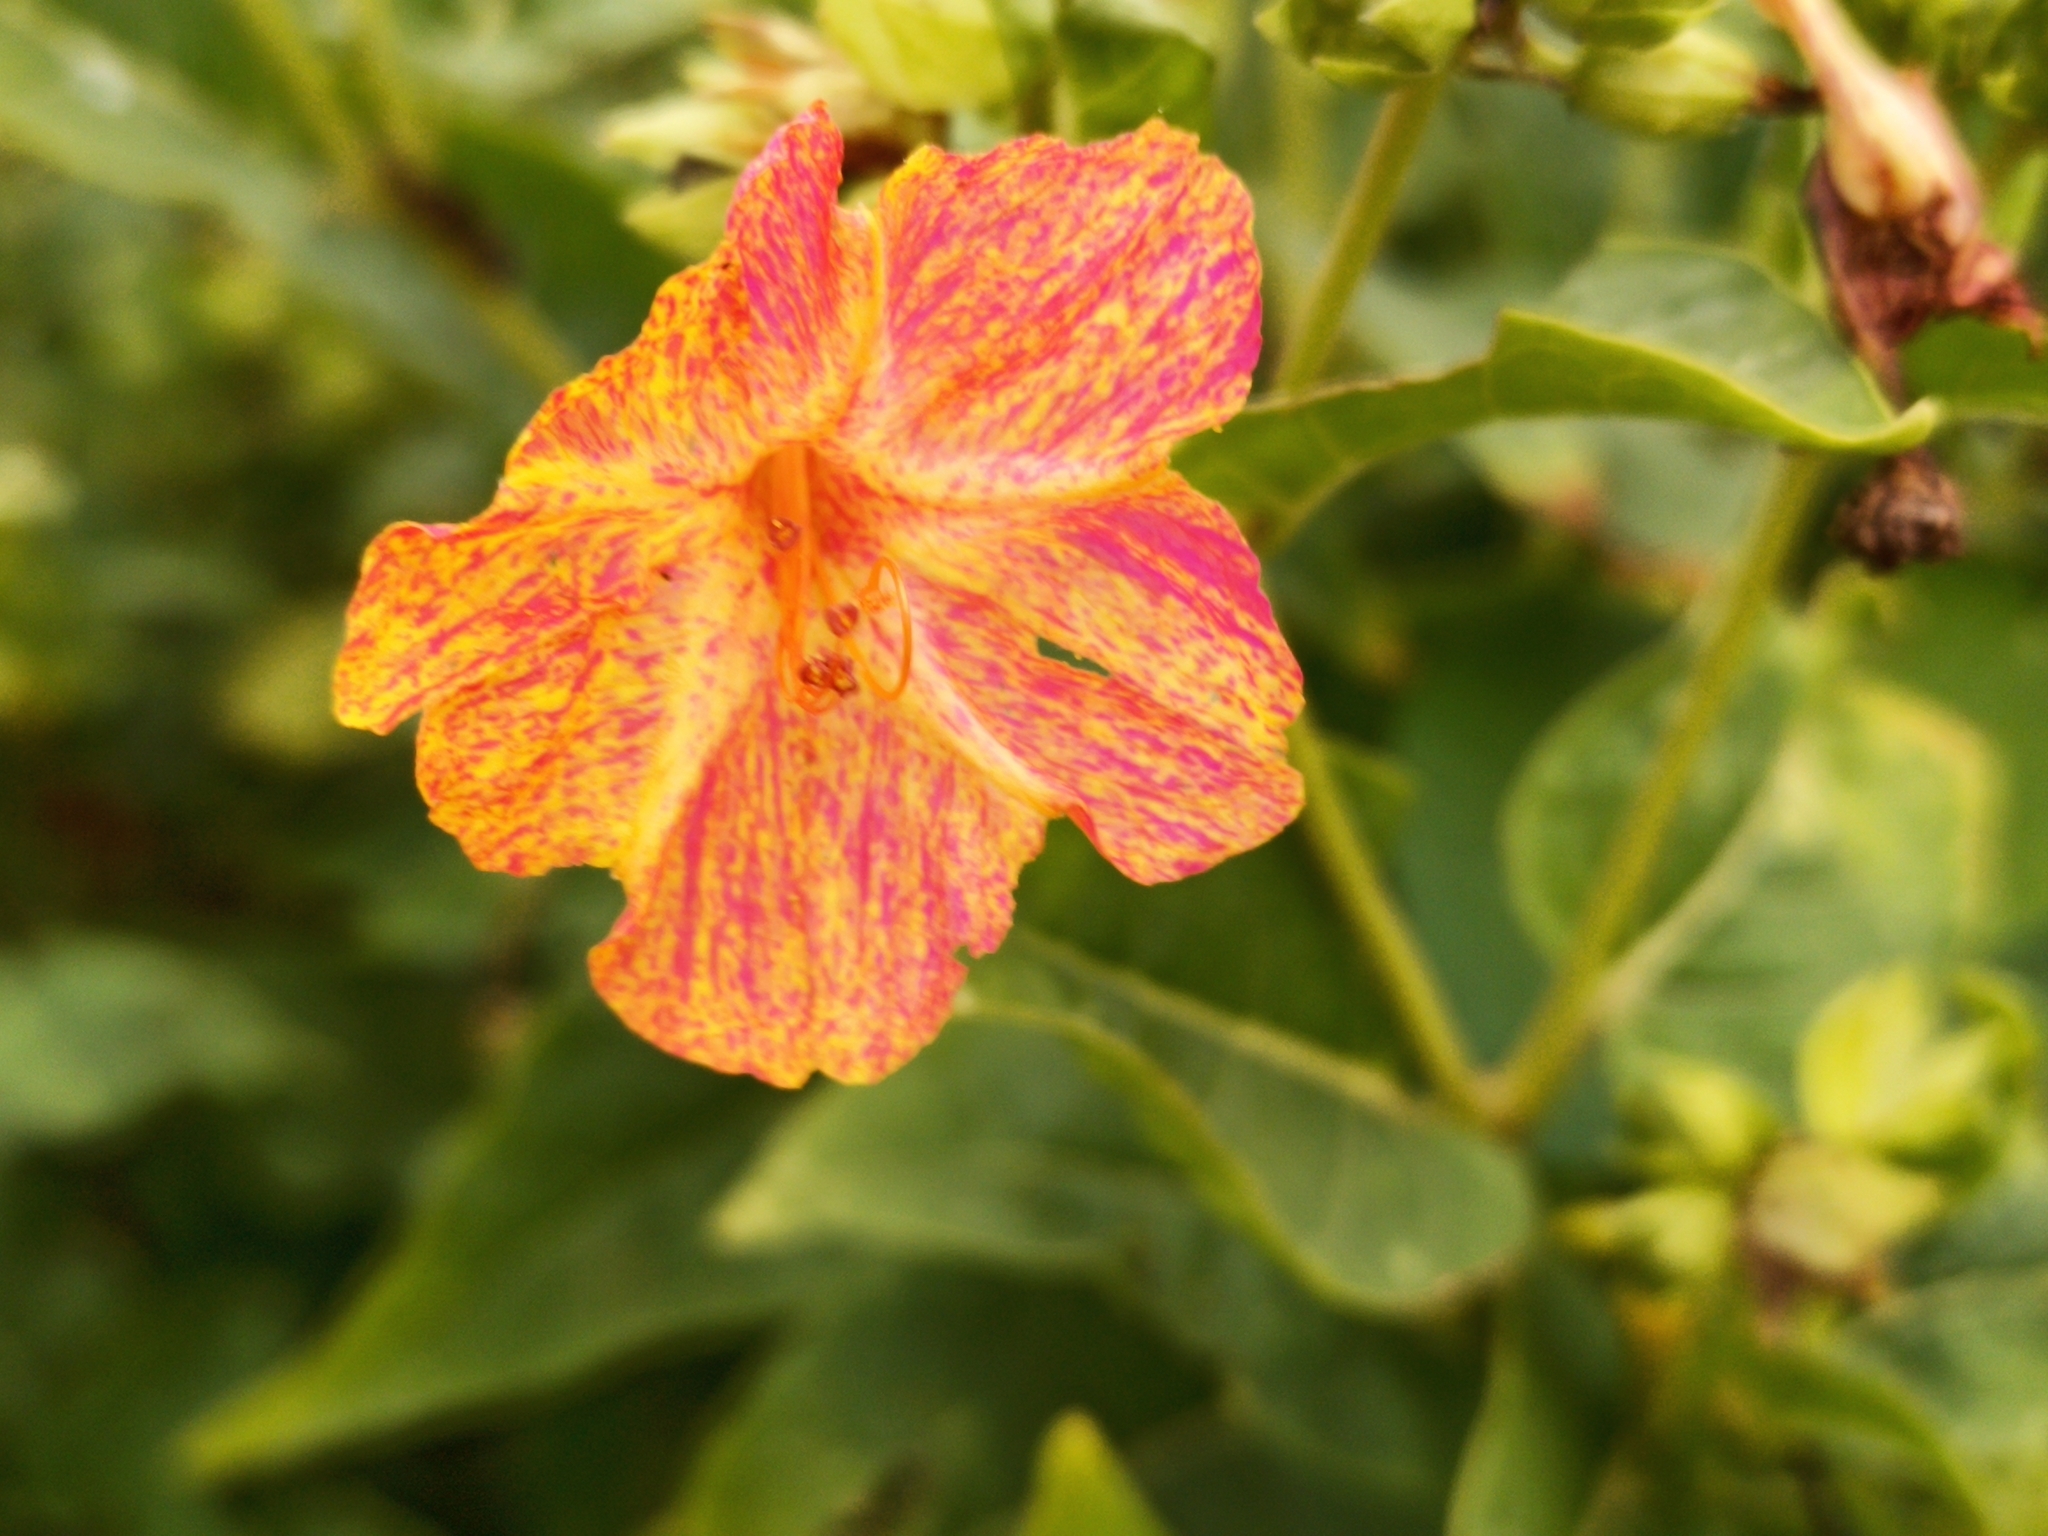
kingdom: Plantae
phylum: Tracheophyta
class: Magnoliopsida
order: Caryophyllales
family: Nyctaginaceae
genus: Mirabilis
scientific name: Mirabilis jalapa
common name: Marvel-of-peru
